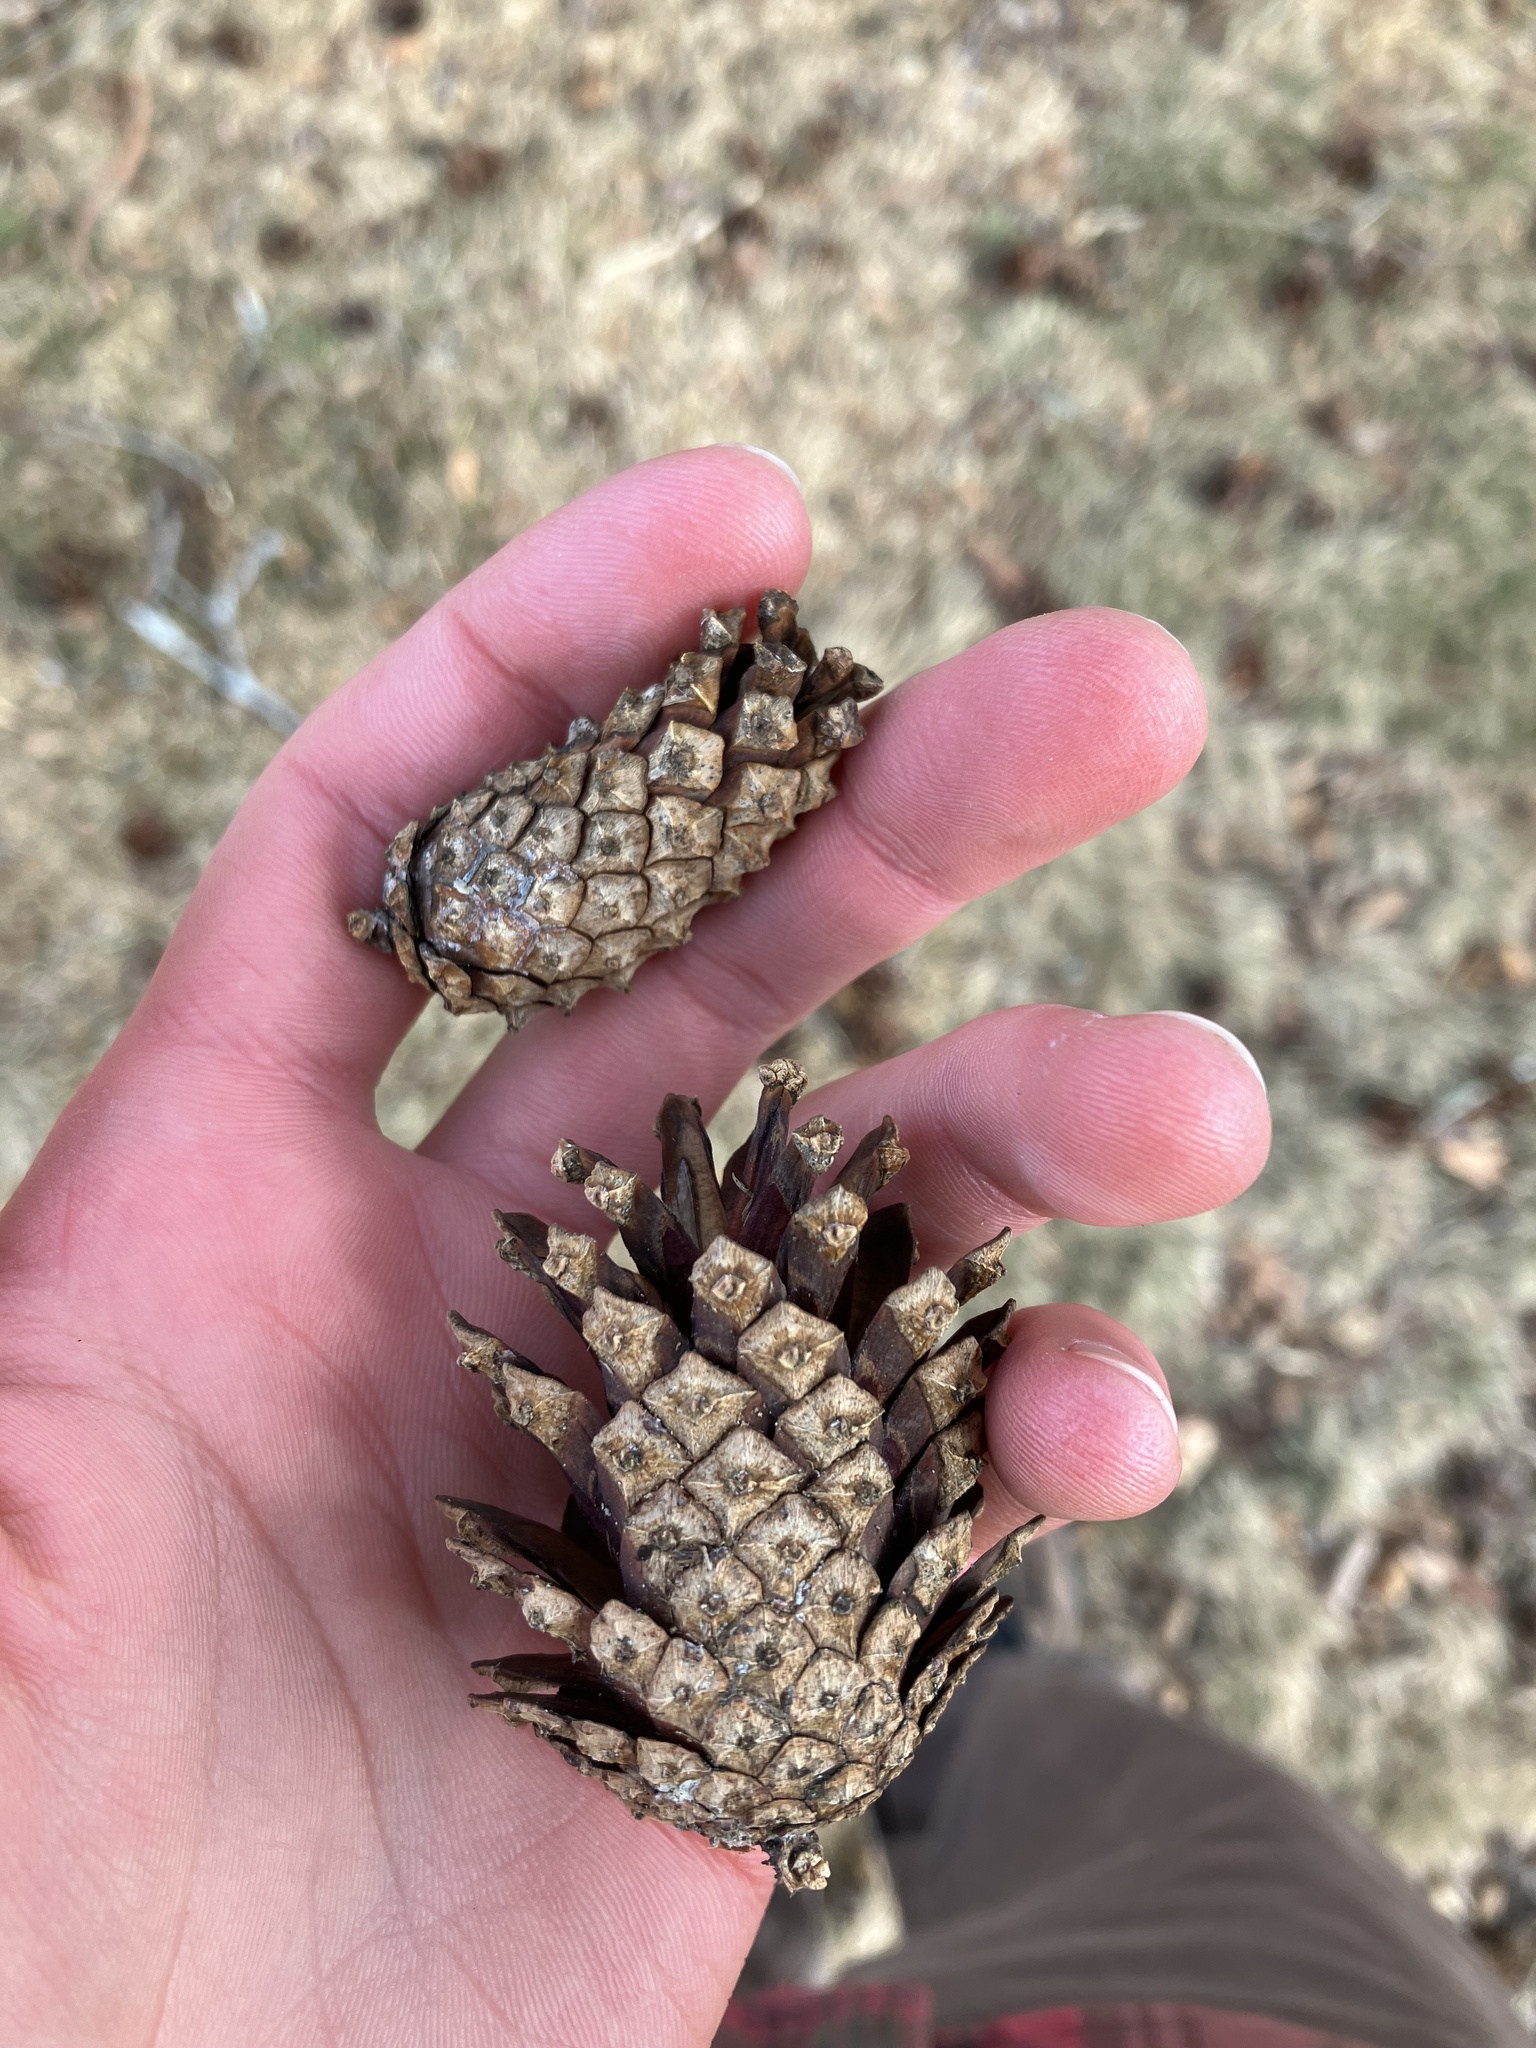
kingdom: Plantae
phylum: Tracheophyta
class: Pinopsida
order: Pinales
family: Pinaceae
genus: Pinus
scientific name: Pinus sylvestris
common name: Scots pine
